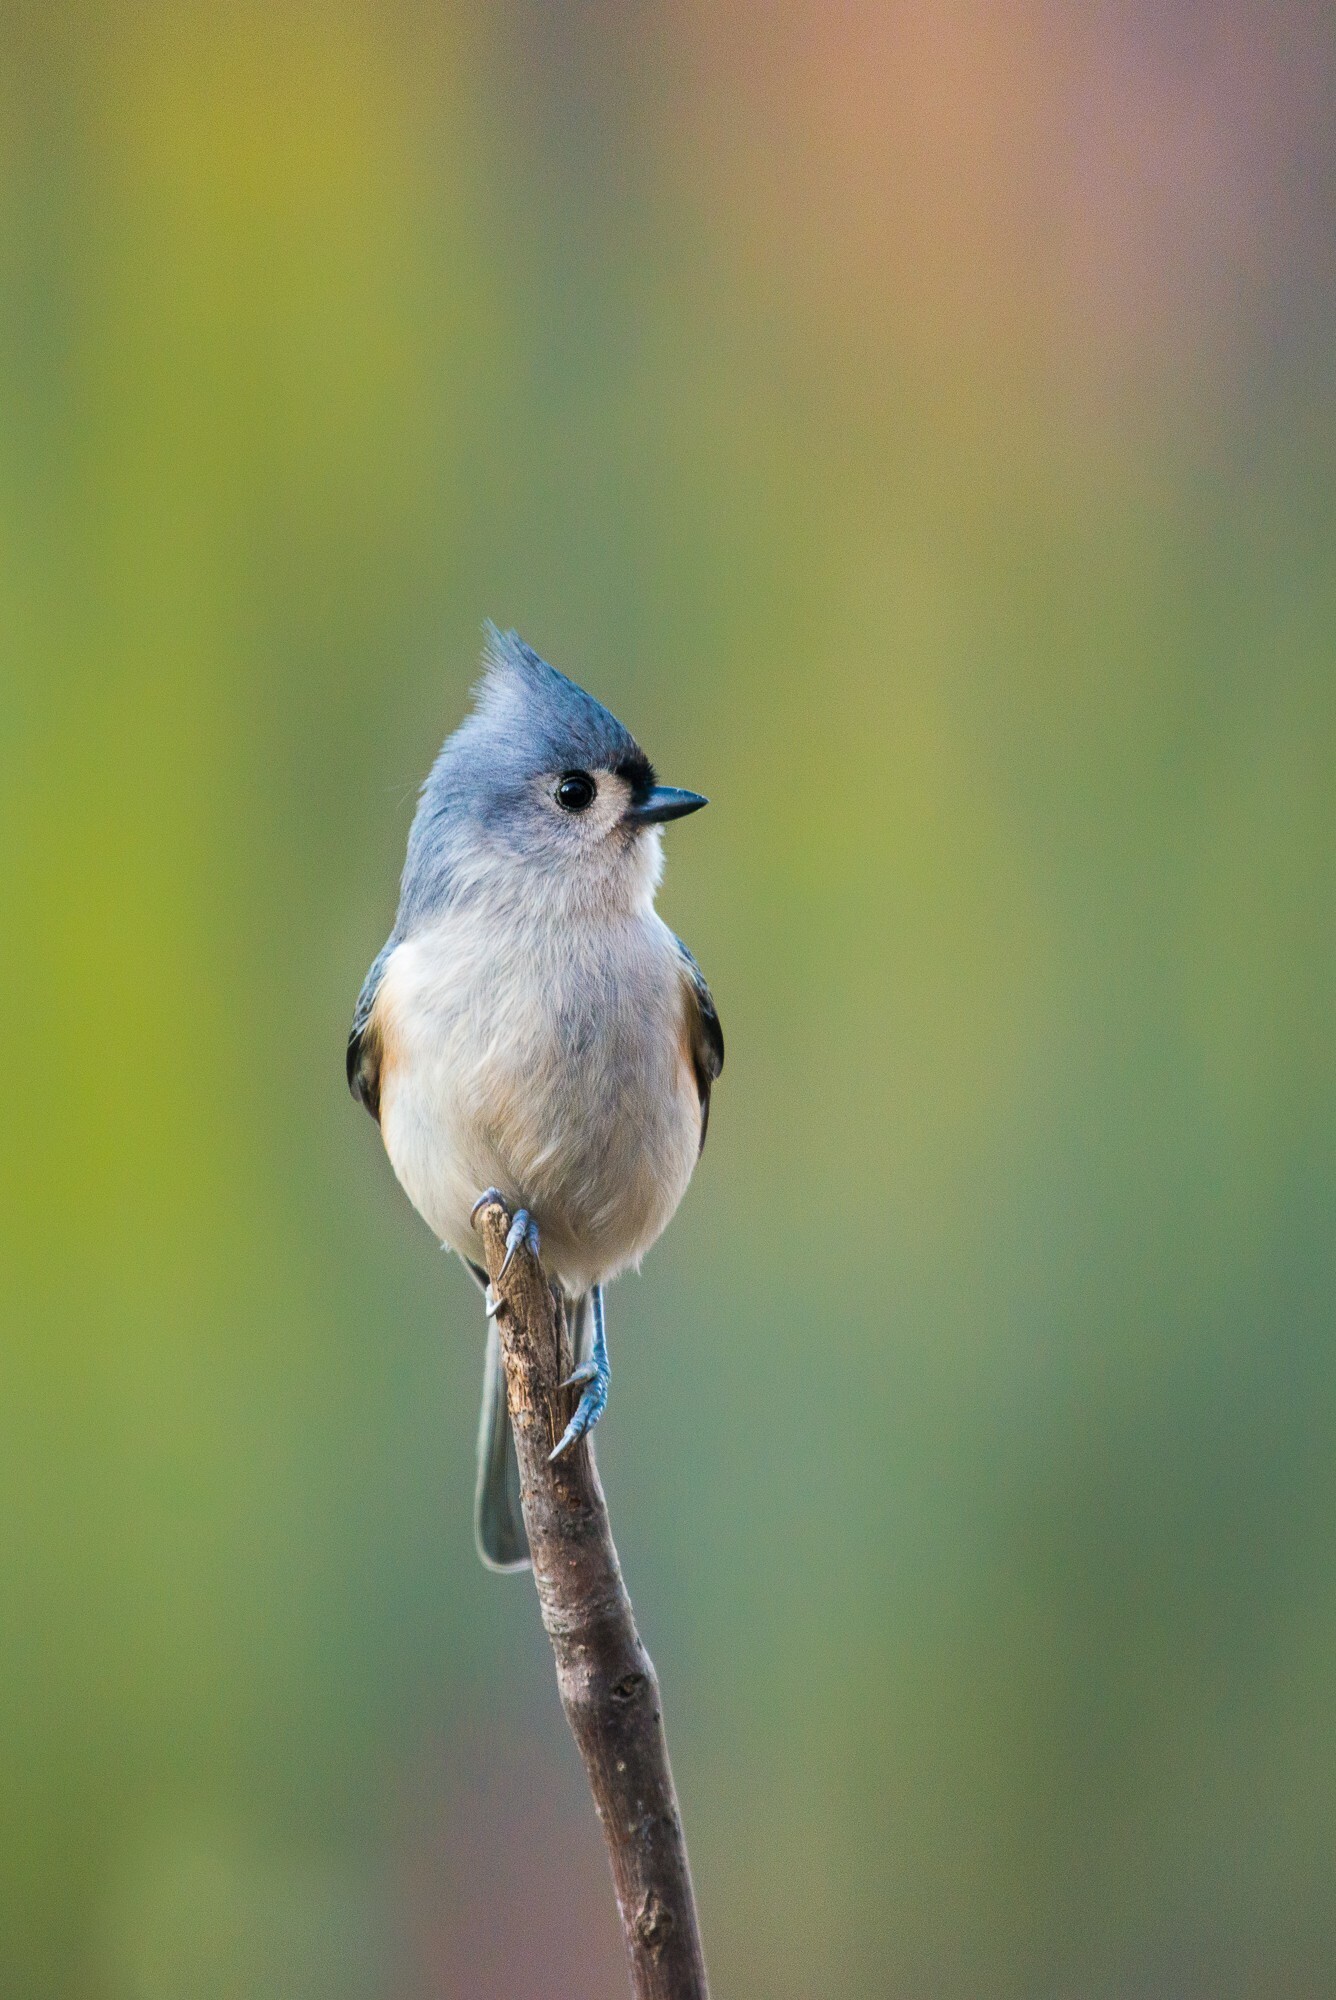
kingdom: Animalia
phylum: Chordata
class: Aves
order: Passeriformes
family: Paridae
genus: Baeolophus
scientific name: Baeolophus bicolor
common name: Tufted titmouse
